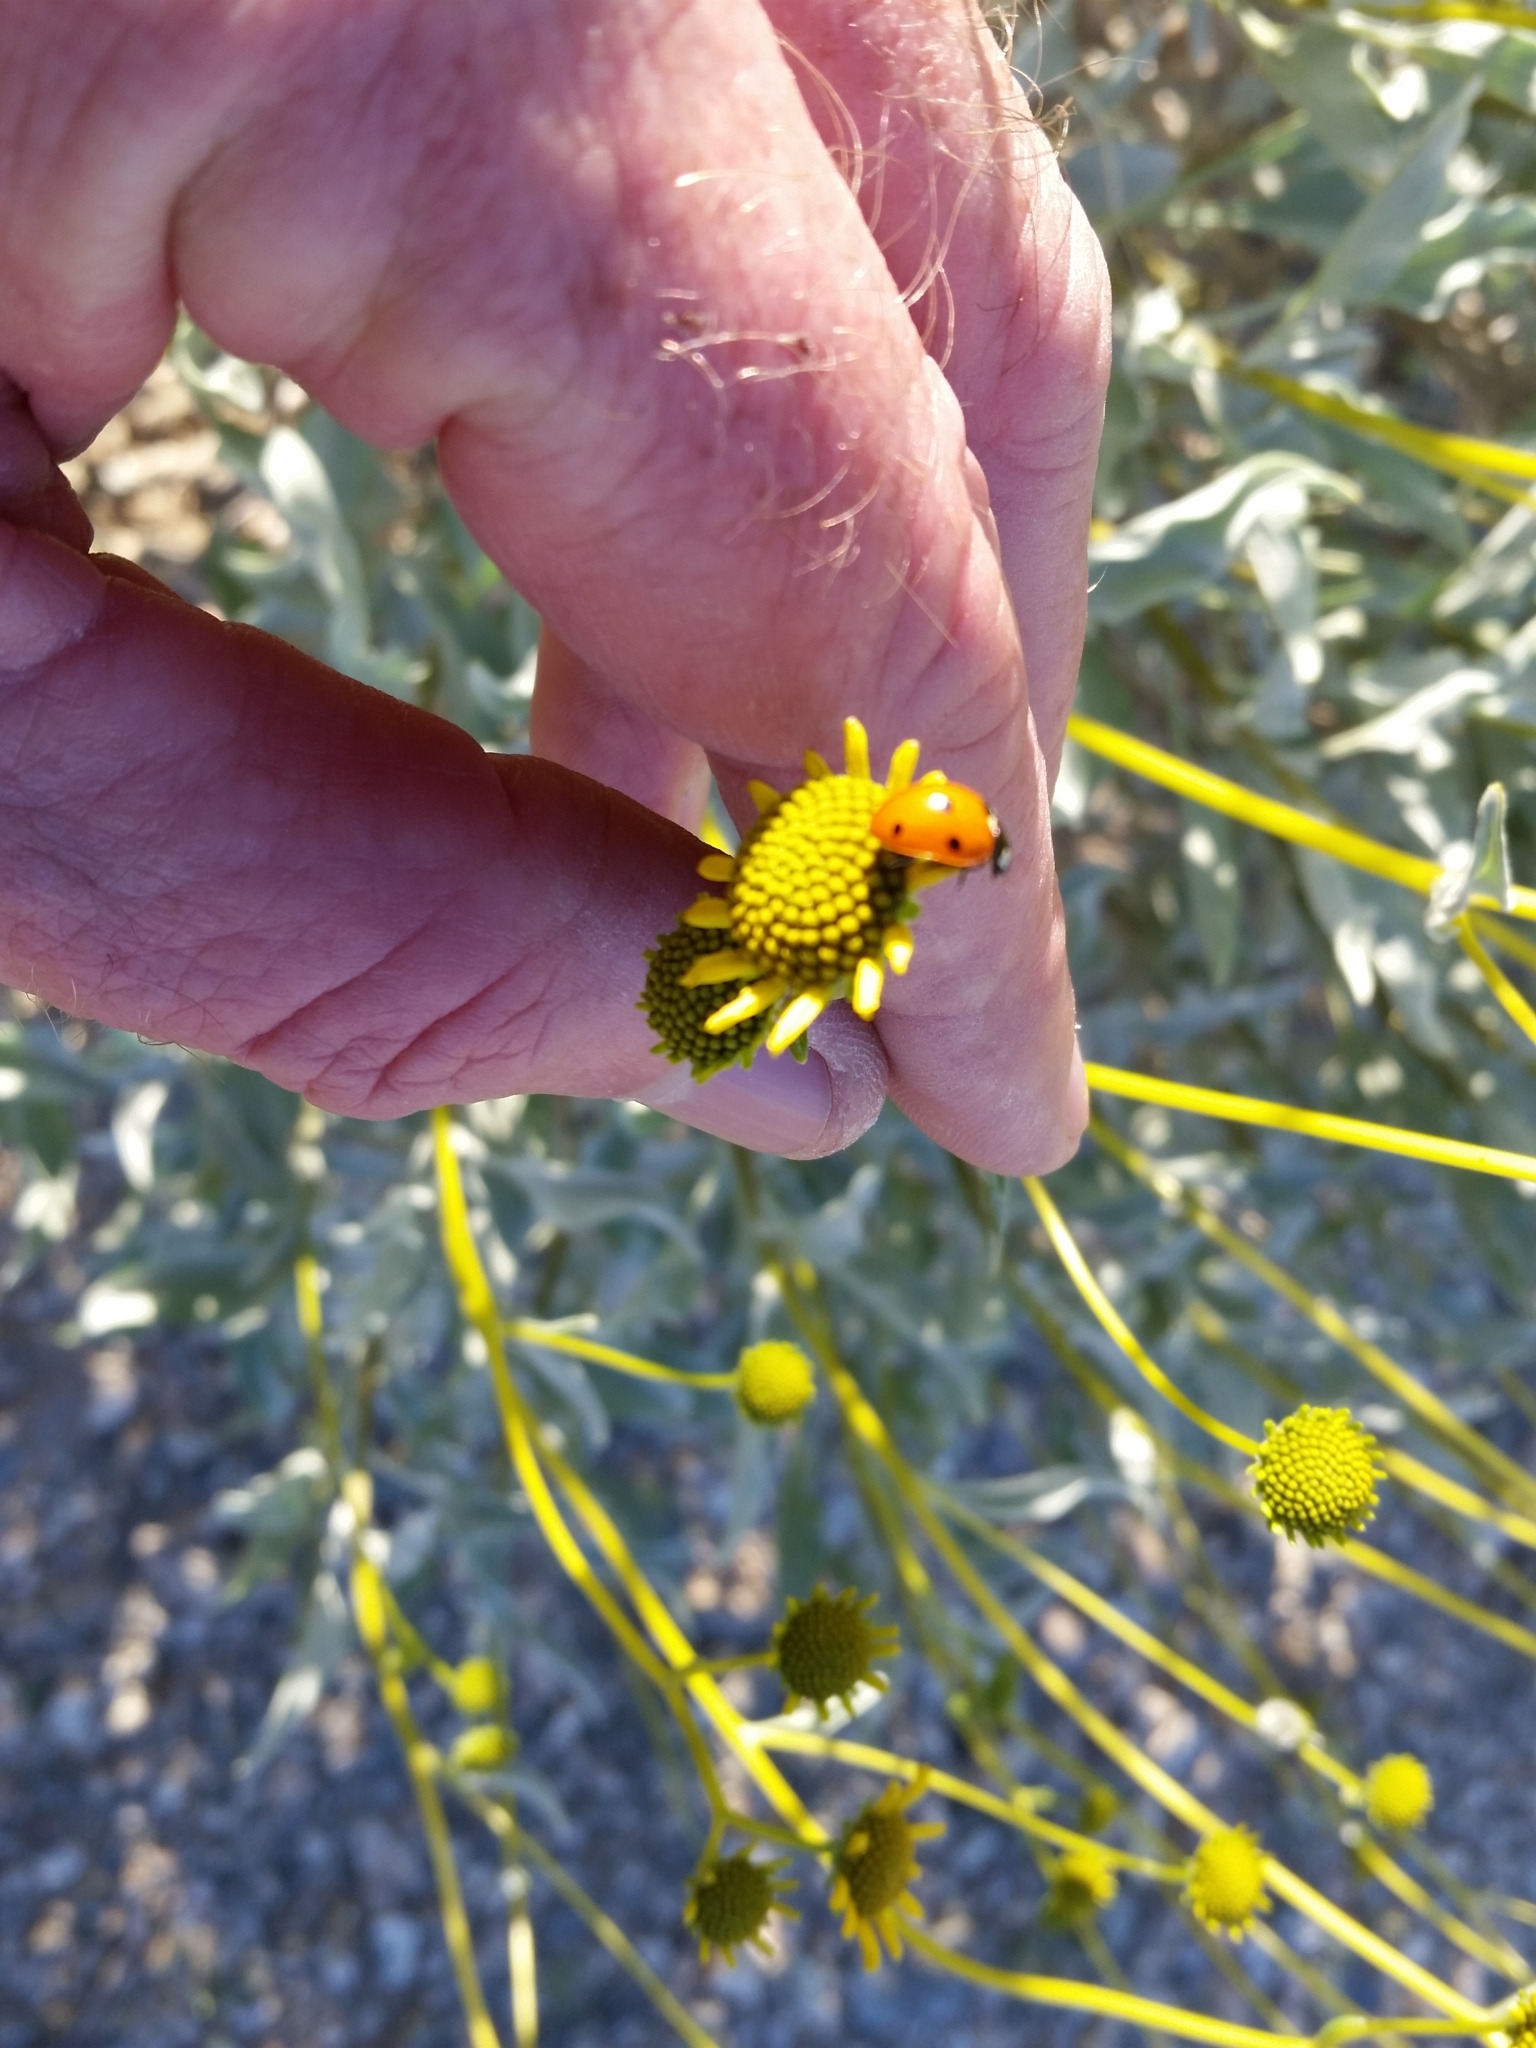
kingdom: Animalia
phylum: Arthropoda
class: Insecta
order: Coleoptera
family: Coccinellidae
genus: Coccinella
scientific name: Coccinella septempunctata
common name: Sevenspotted lady beetle
